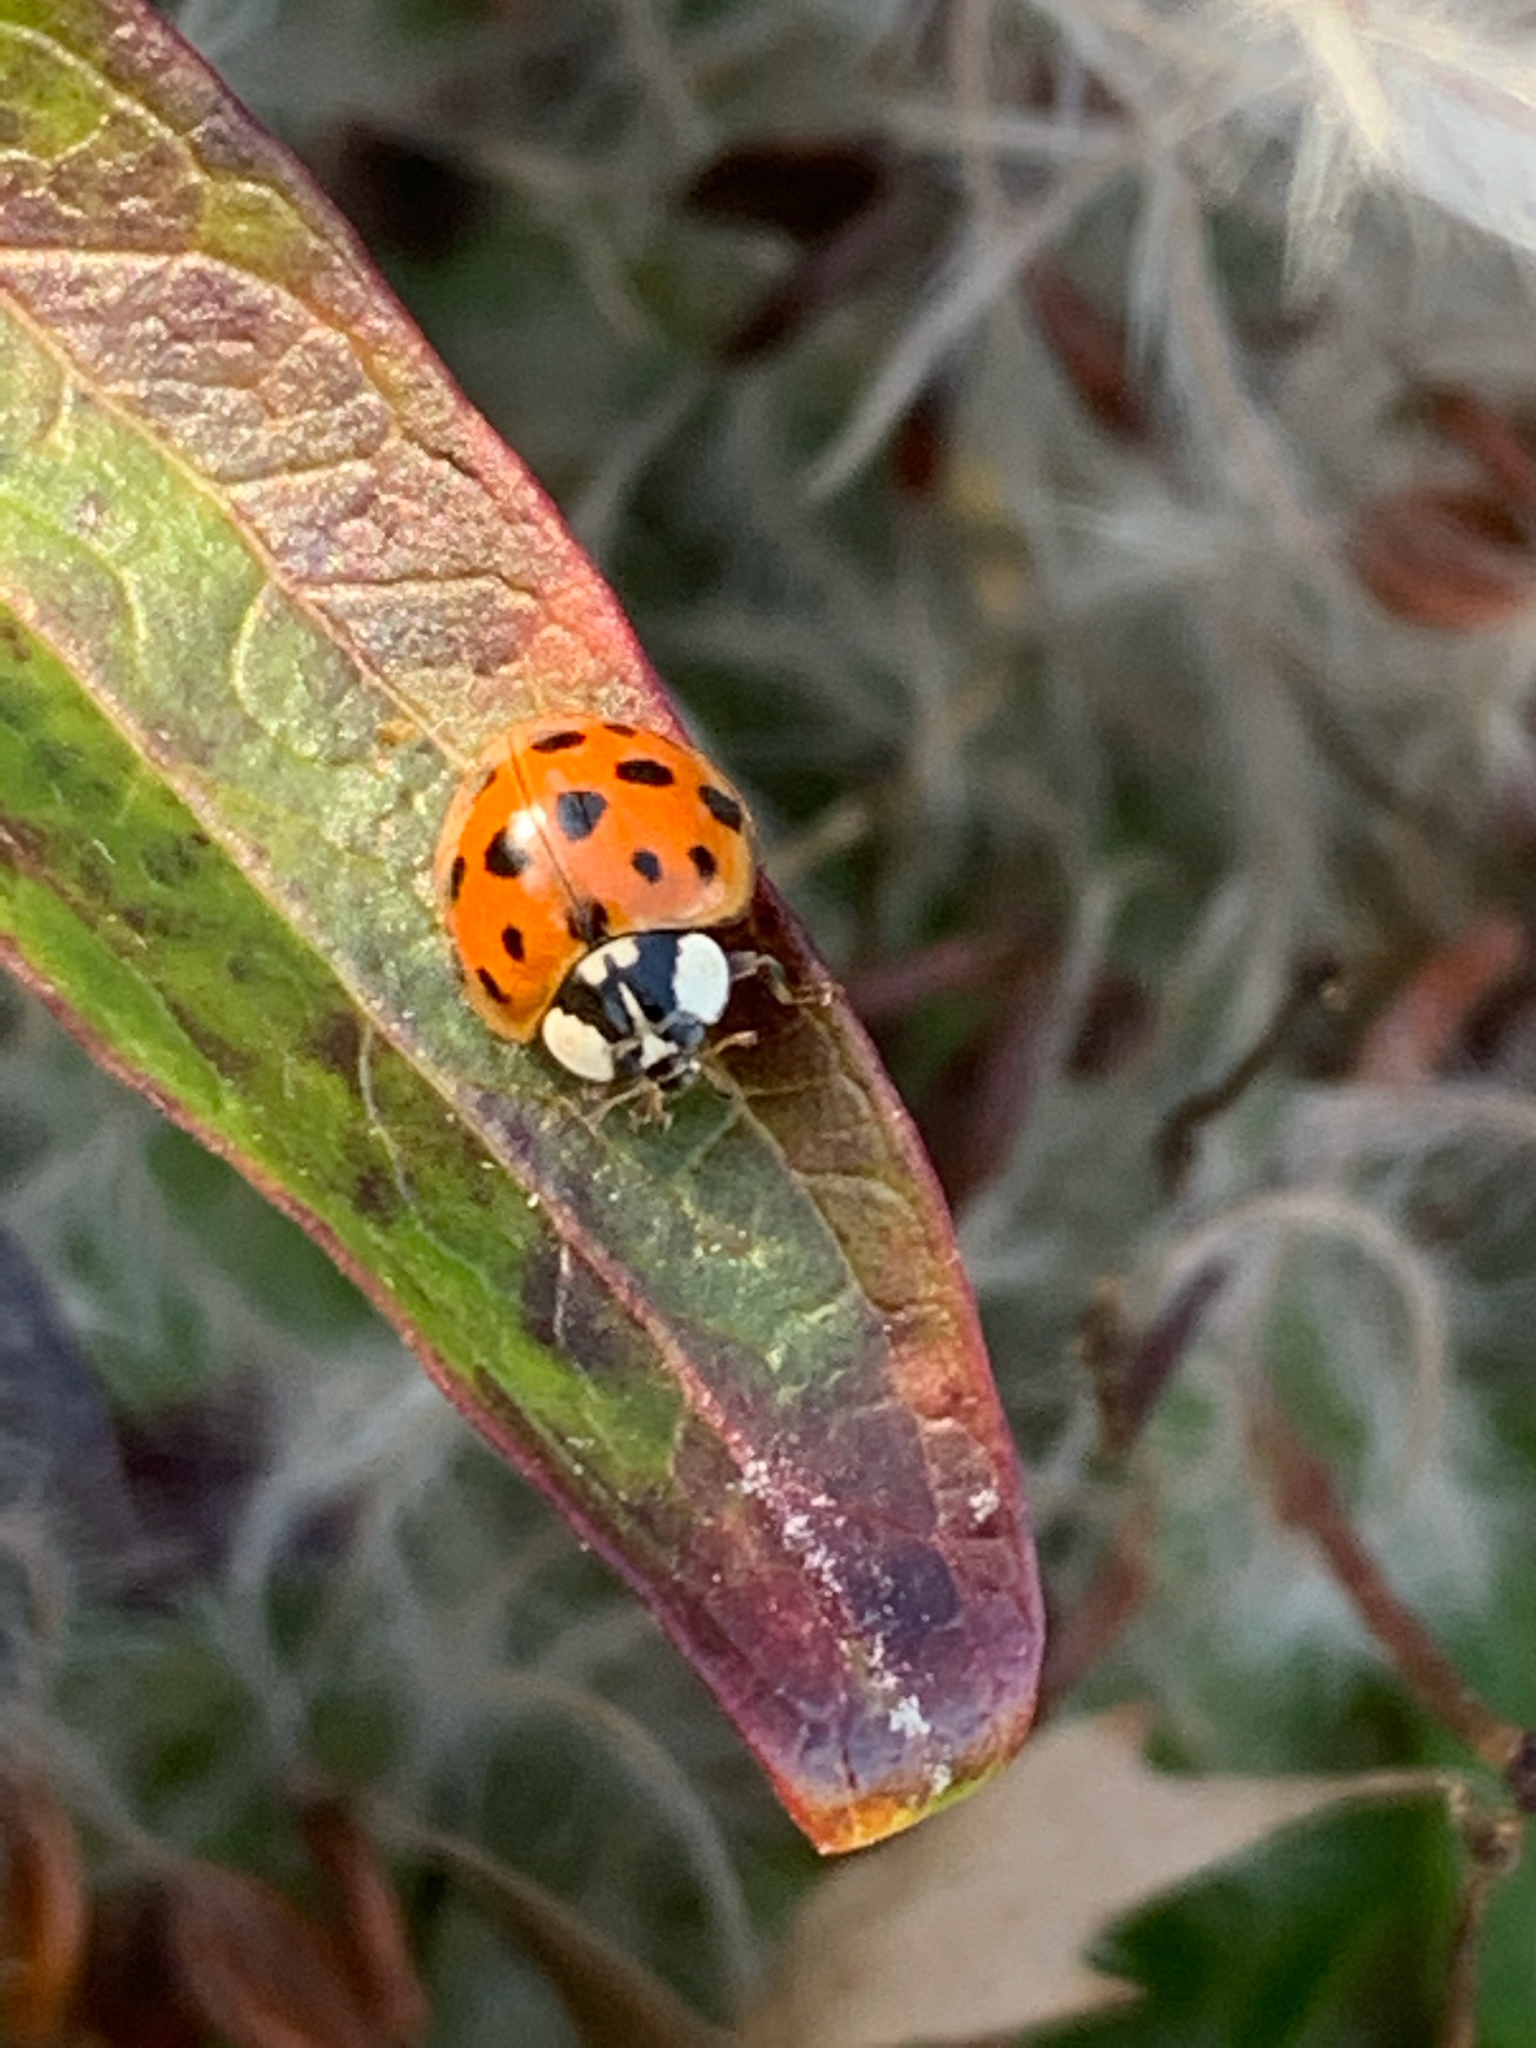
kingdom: Animalia
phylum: Arthropoda
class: Insecta
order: Coleoptera
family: Coccinellidae
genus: Harmonia
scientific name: Harmonia axyridis
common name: Harlequin ladybird
